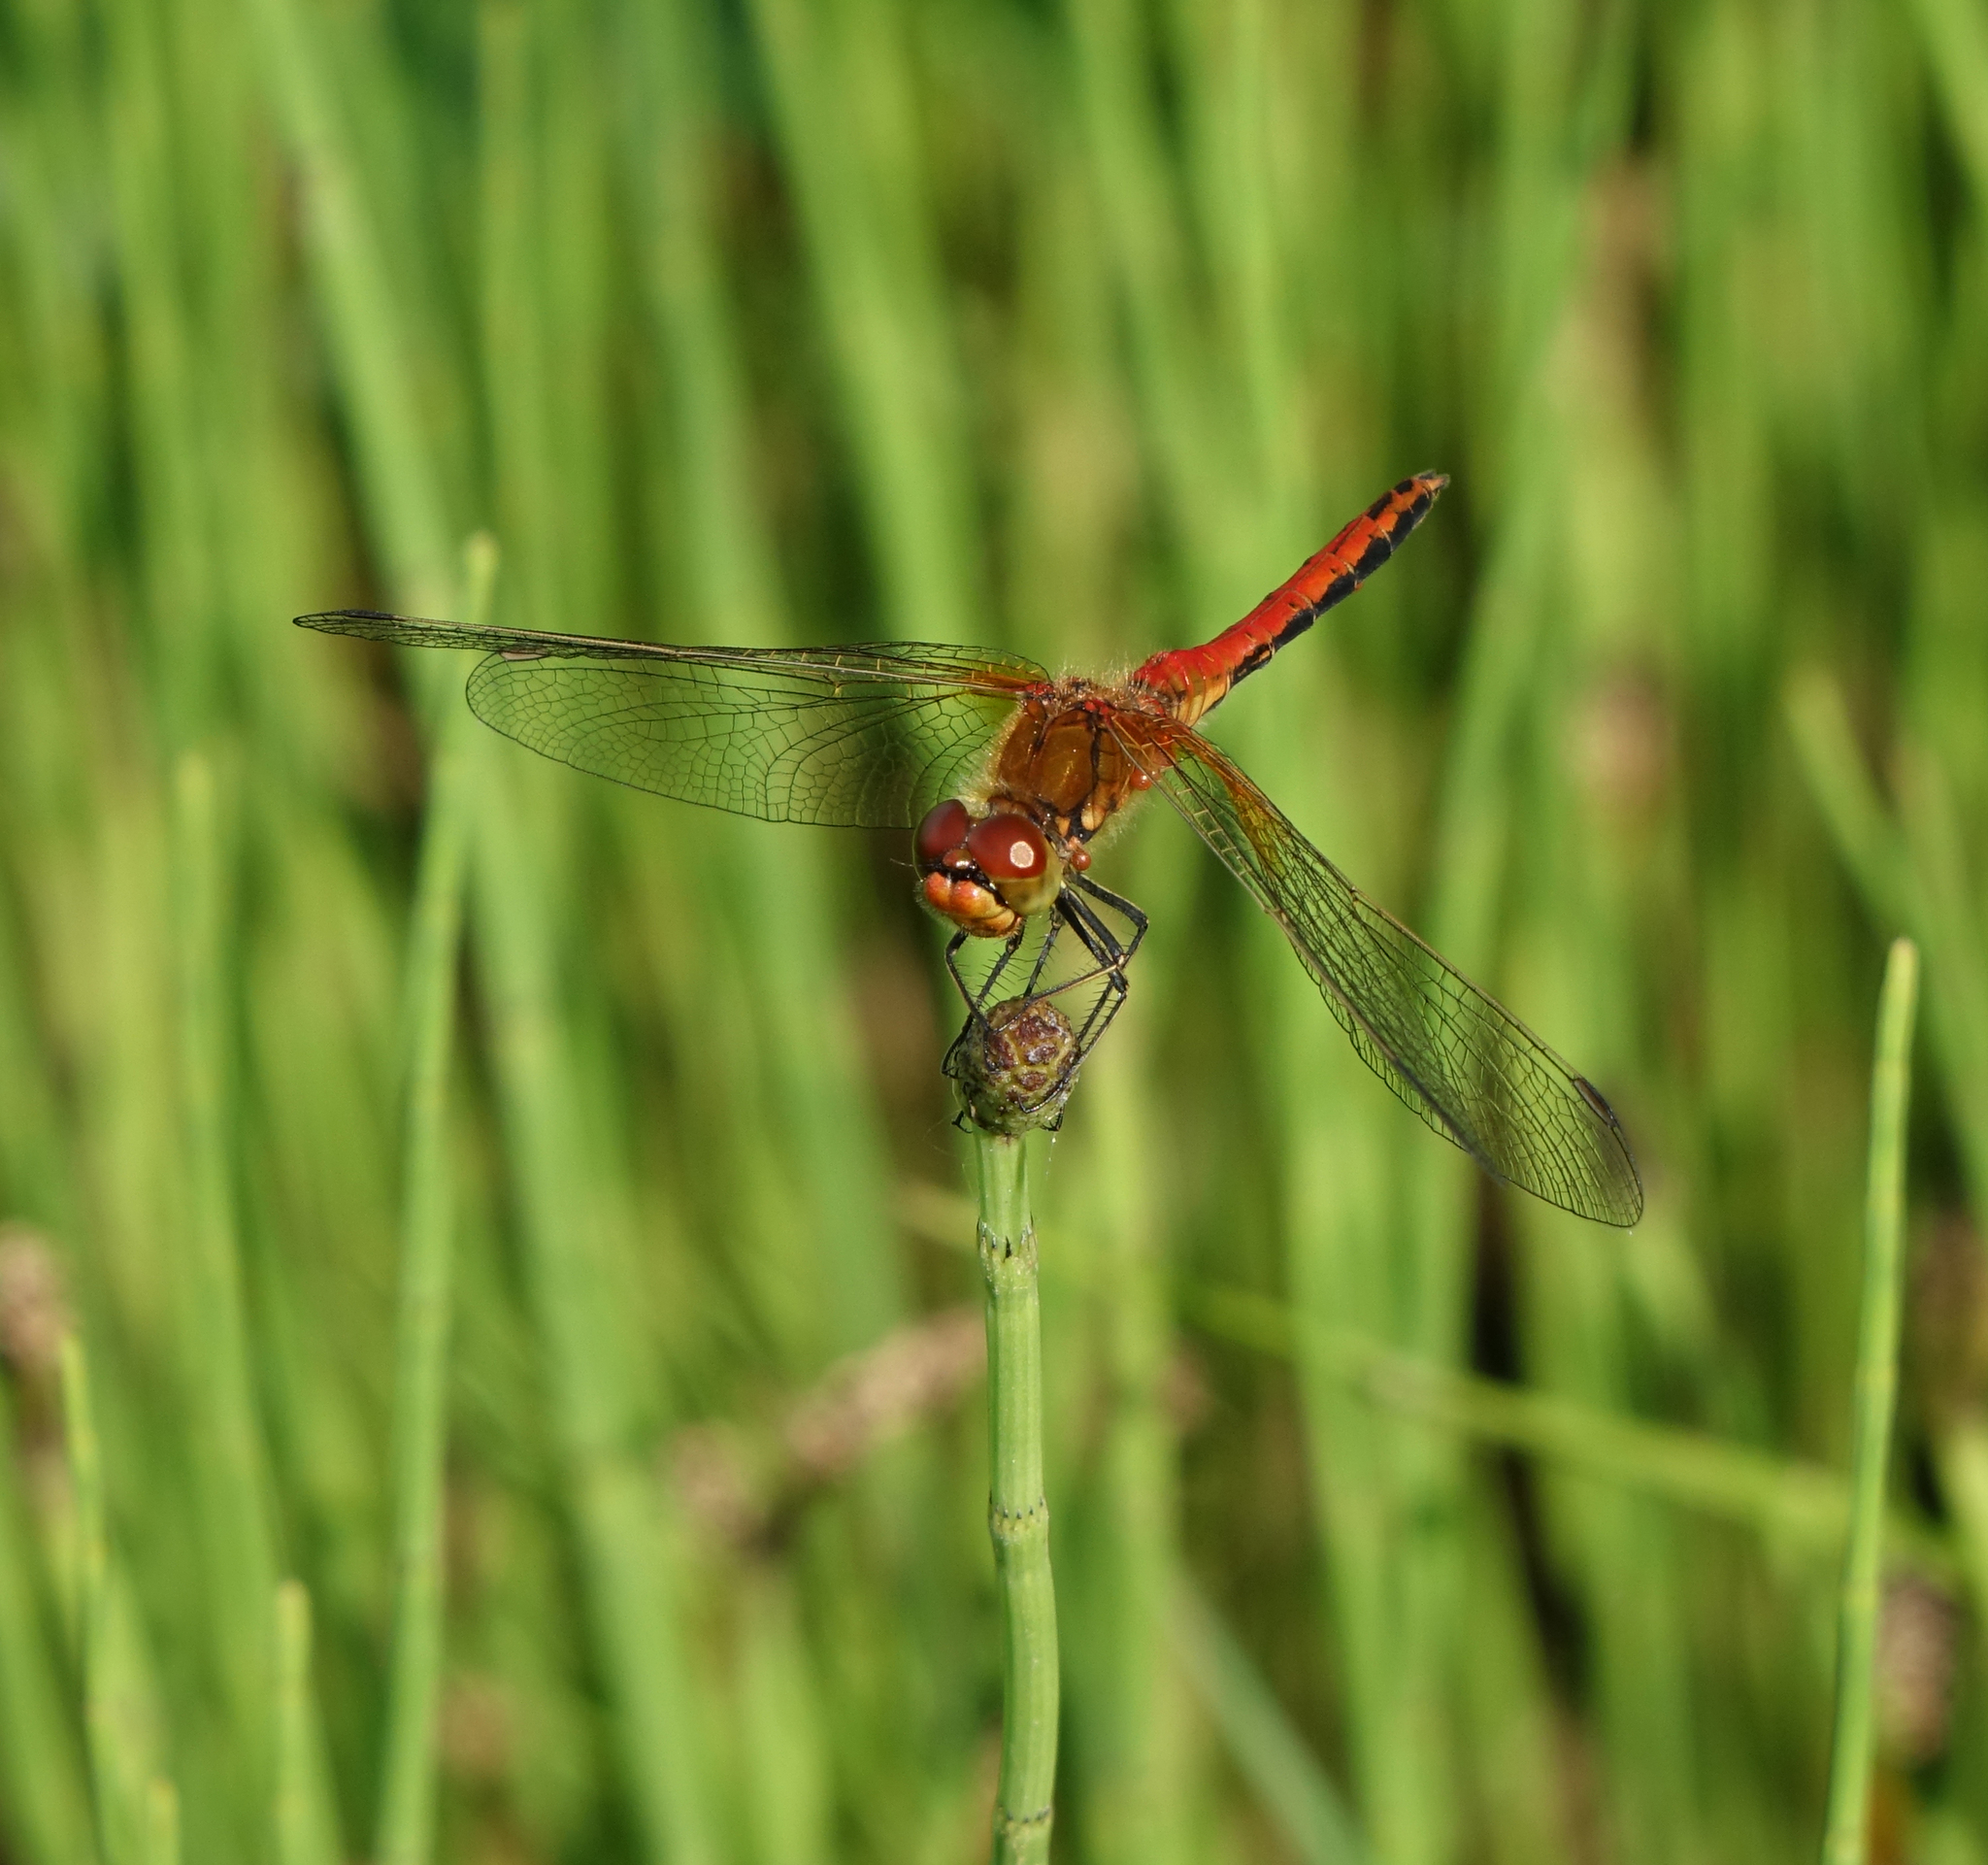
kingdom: Animalia
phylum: Arthropoda
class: Insecta
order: Odonata
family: Libellulidae
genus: Sympetrum
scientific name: Sympetrum flaveolum
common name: Yellow-winged darter
